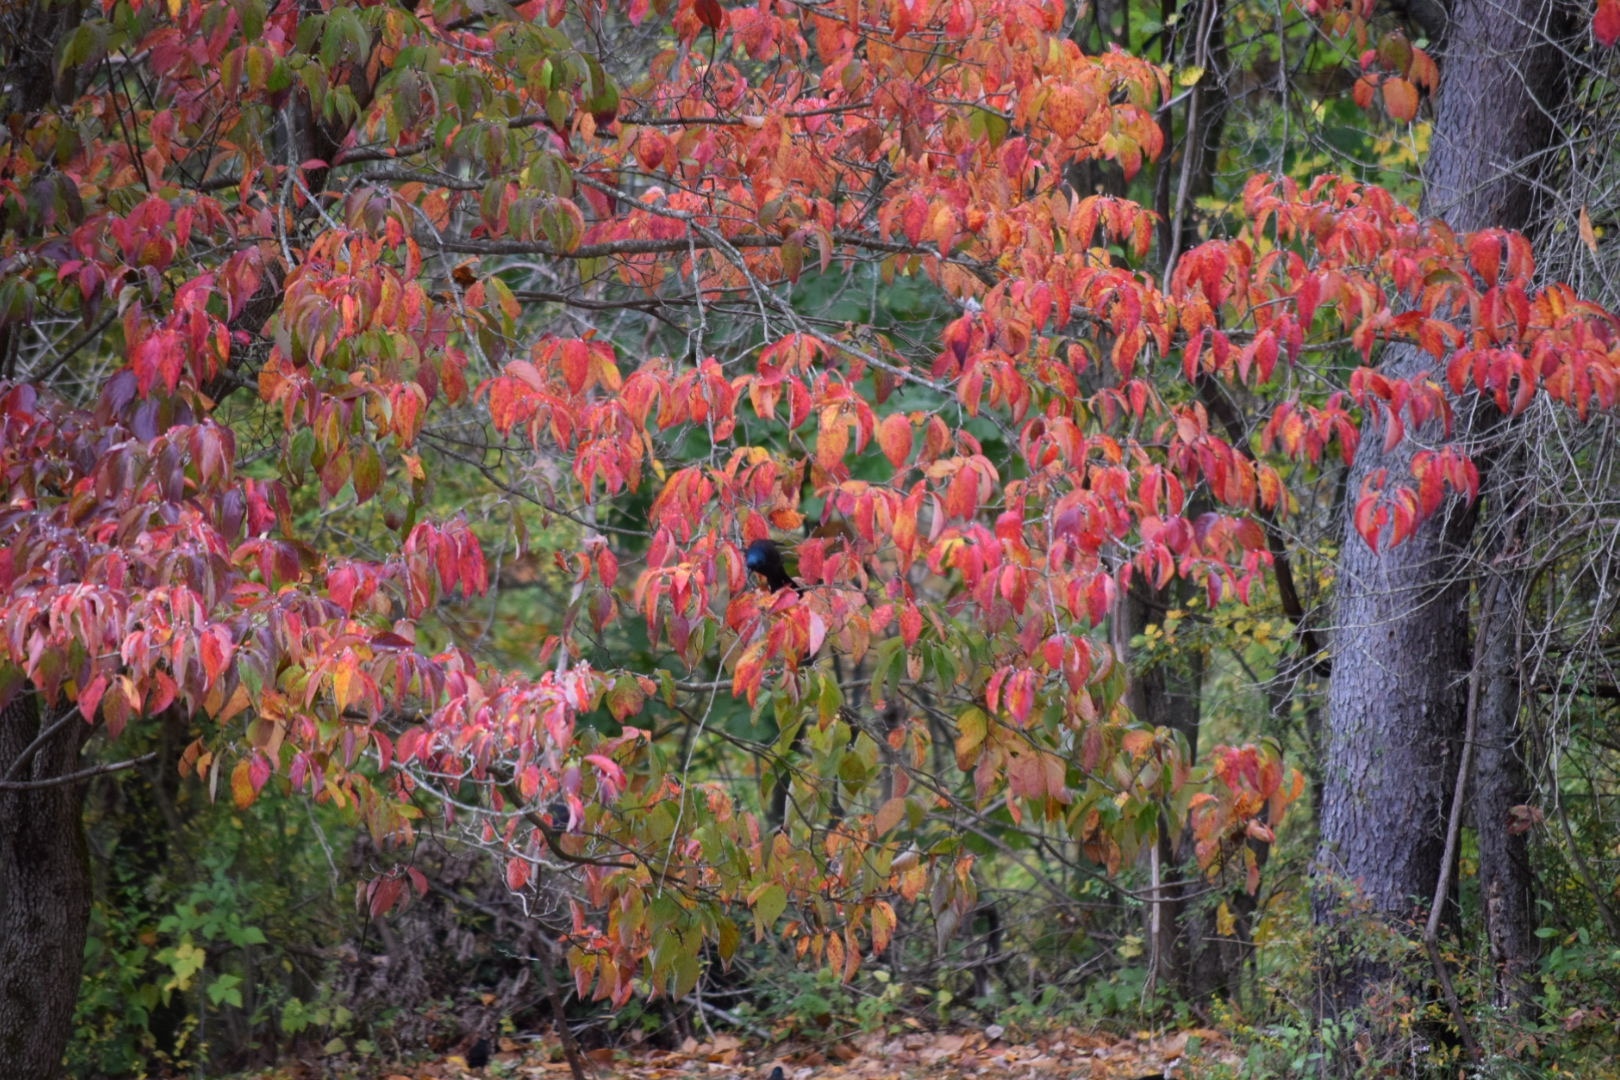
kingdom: Animalia
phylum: Chordata
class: Aves
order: Passeriformes
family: Icteridae
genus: Quiscalus
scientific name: Quiscalus quiscula
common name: Common grackle
